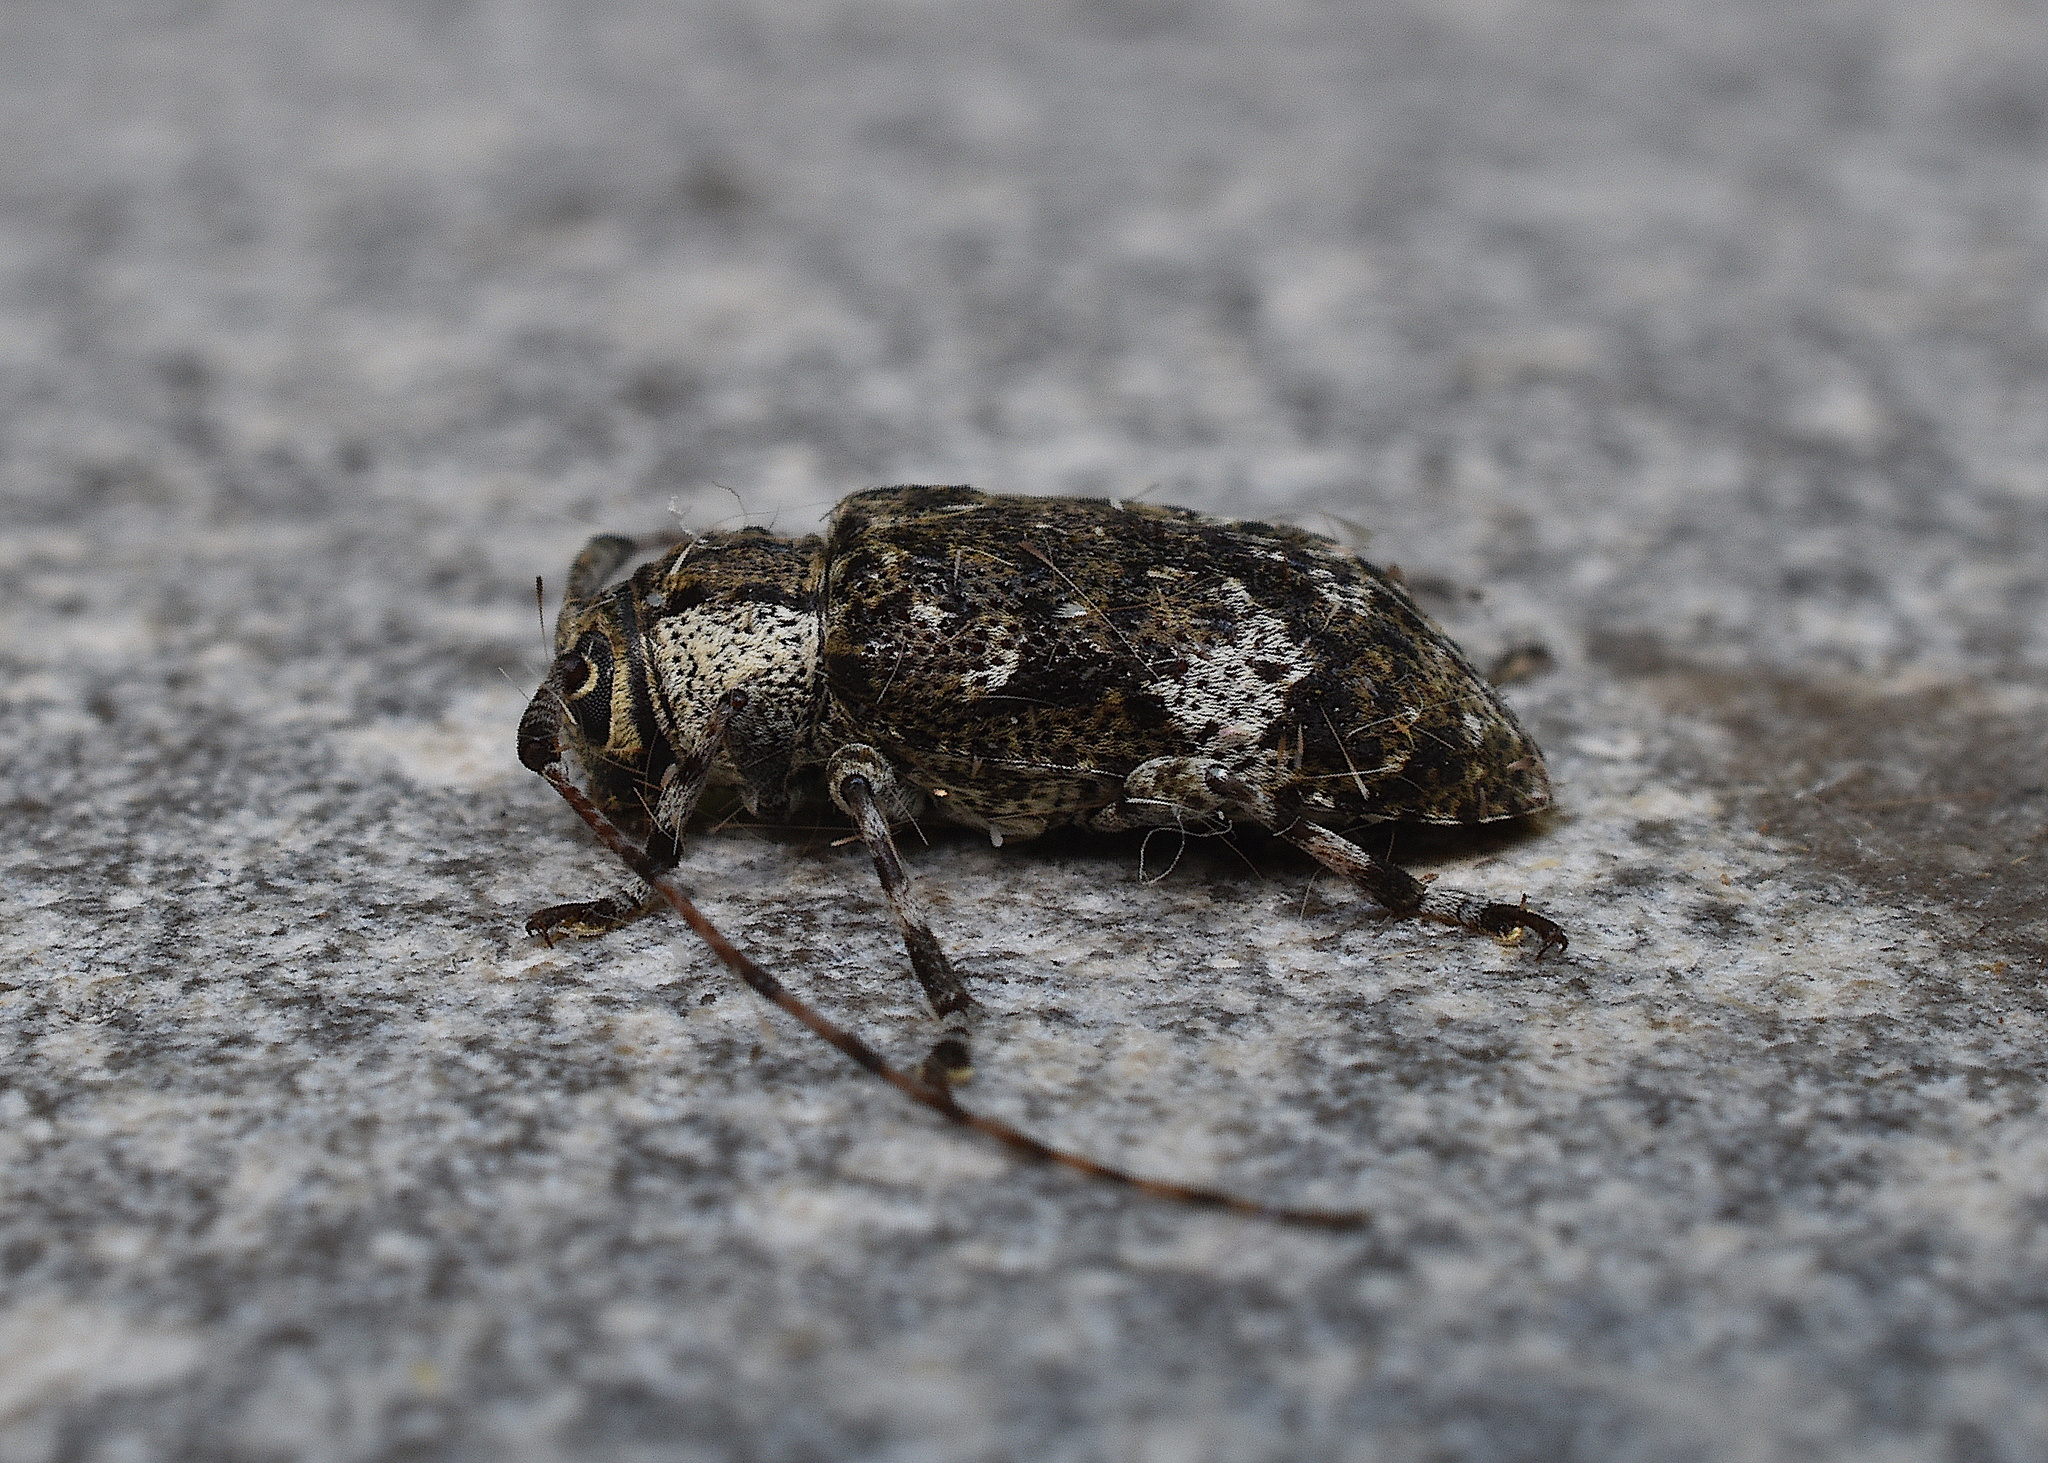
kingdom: Animalia
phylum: Arthropoda
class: Insecta
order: Coleoptera
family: Cerambycidae
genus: Astylopsis
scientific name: Astylopsis macula
